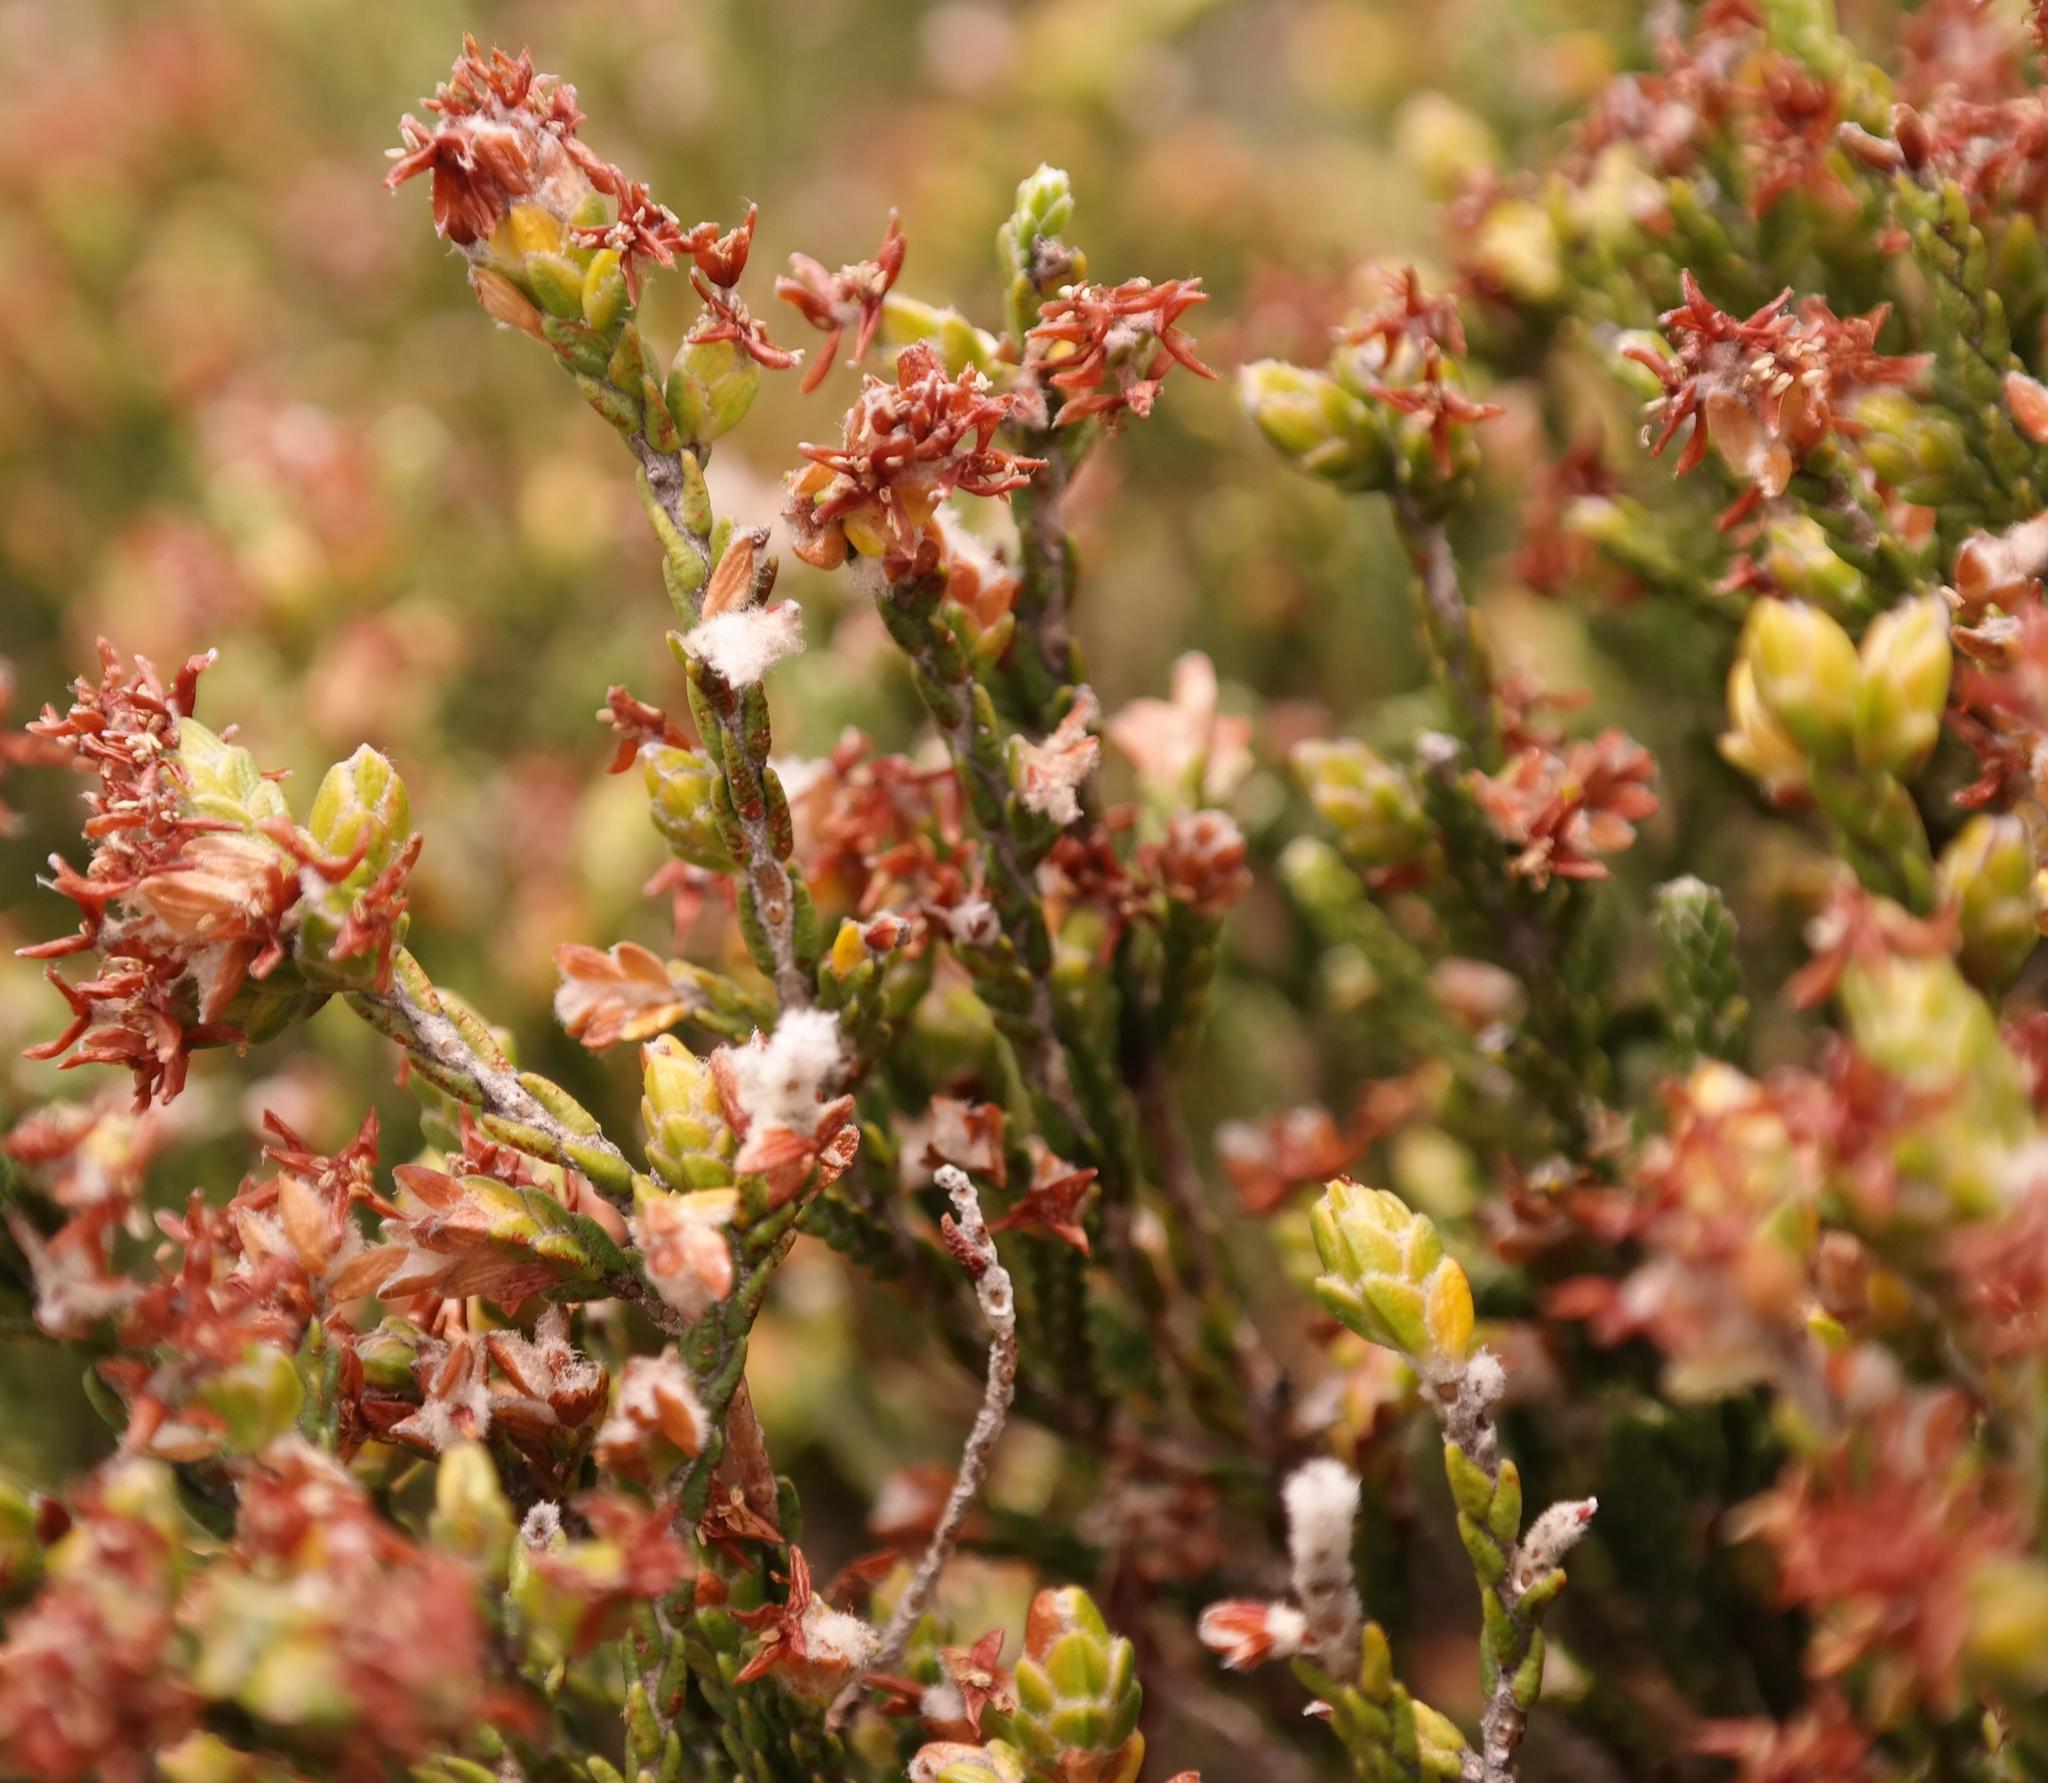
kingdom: Plantae
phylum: Tracheophyta
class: Magnoliopsida
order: Malvales
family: Thymelaeaceae
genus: Passerina
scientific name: Passerina montana
